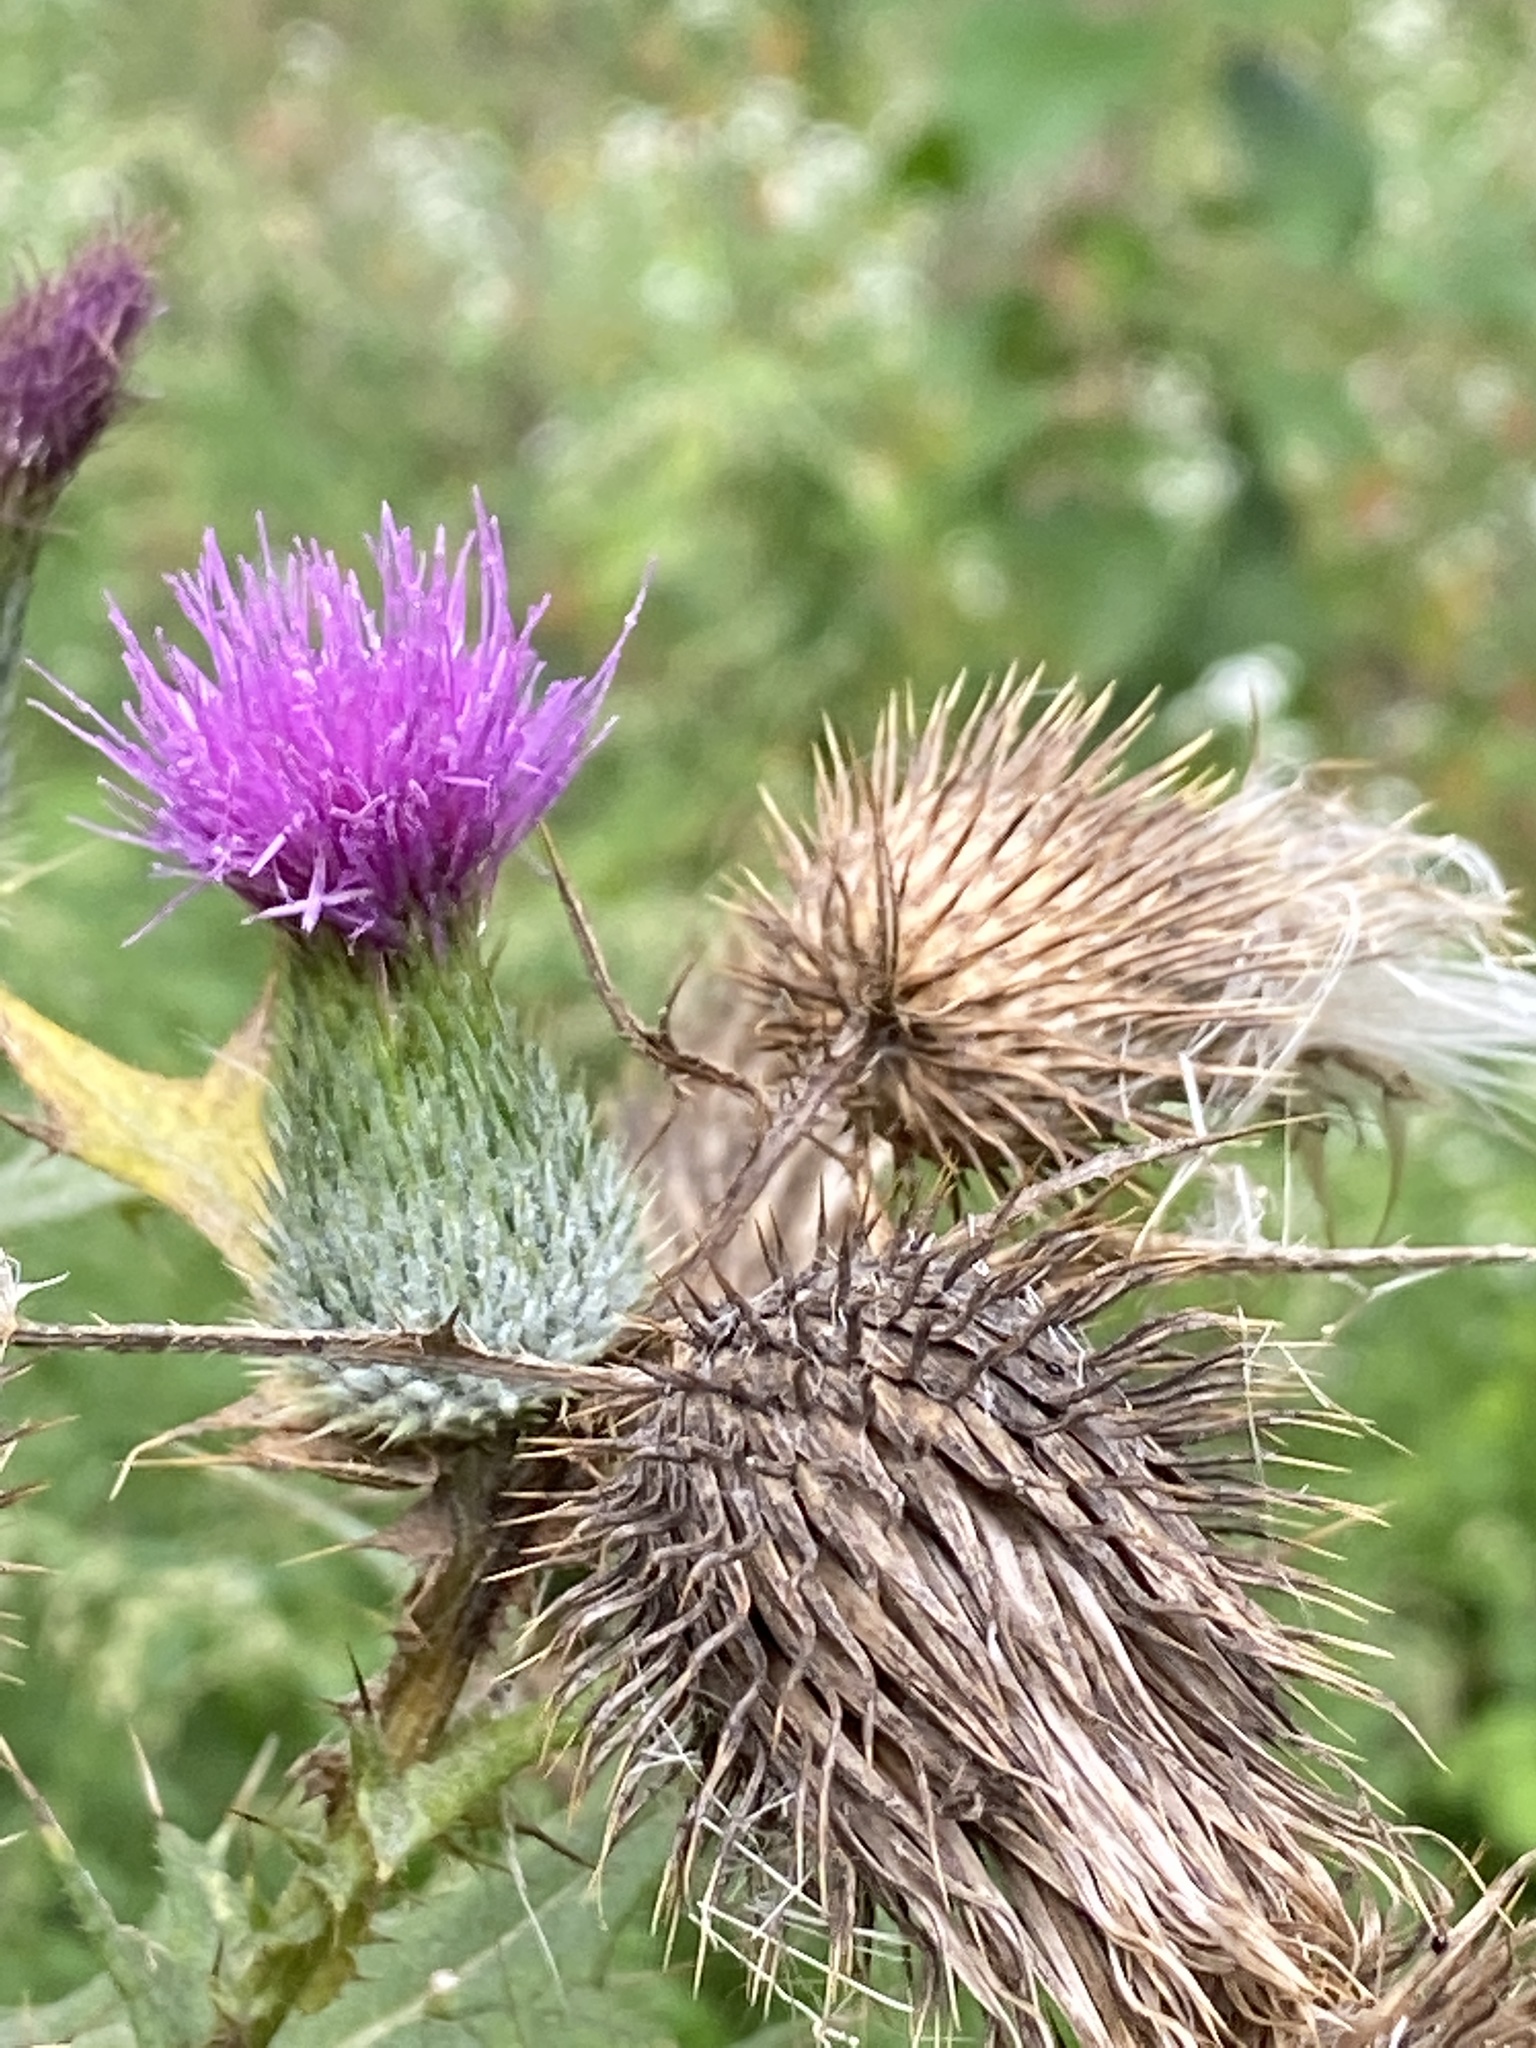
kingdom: Plantae
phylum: Tracheophyta
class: Magnoliopsida
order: Asterales
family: Asteraceae
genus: Cirsium
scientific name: Cirsium vulgare
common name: Bull thistle
